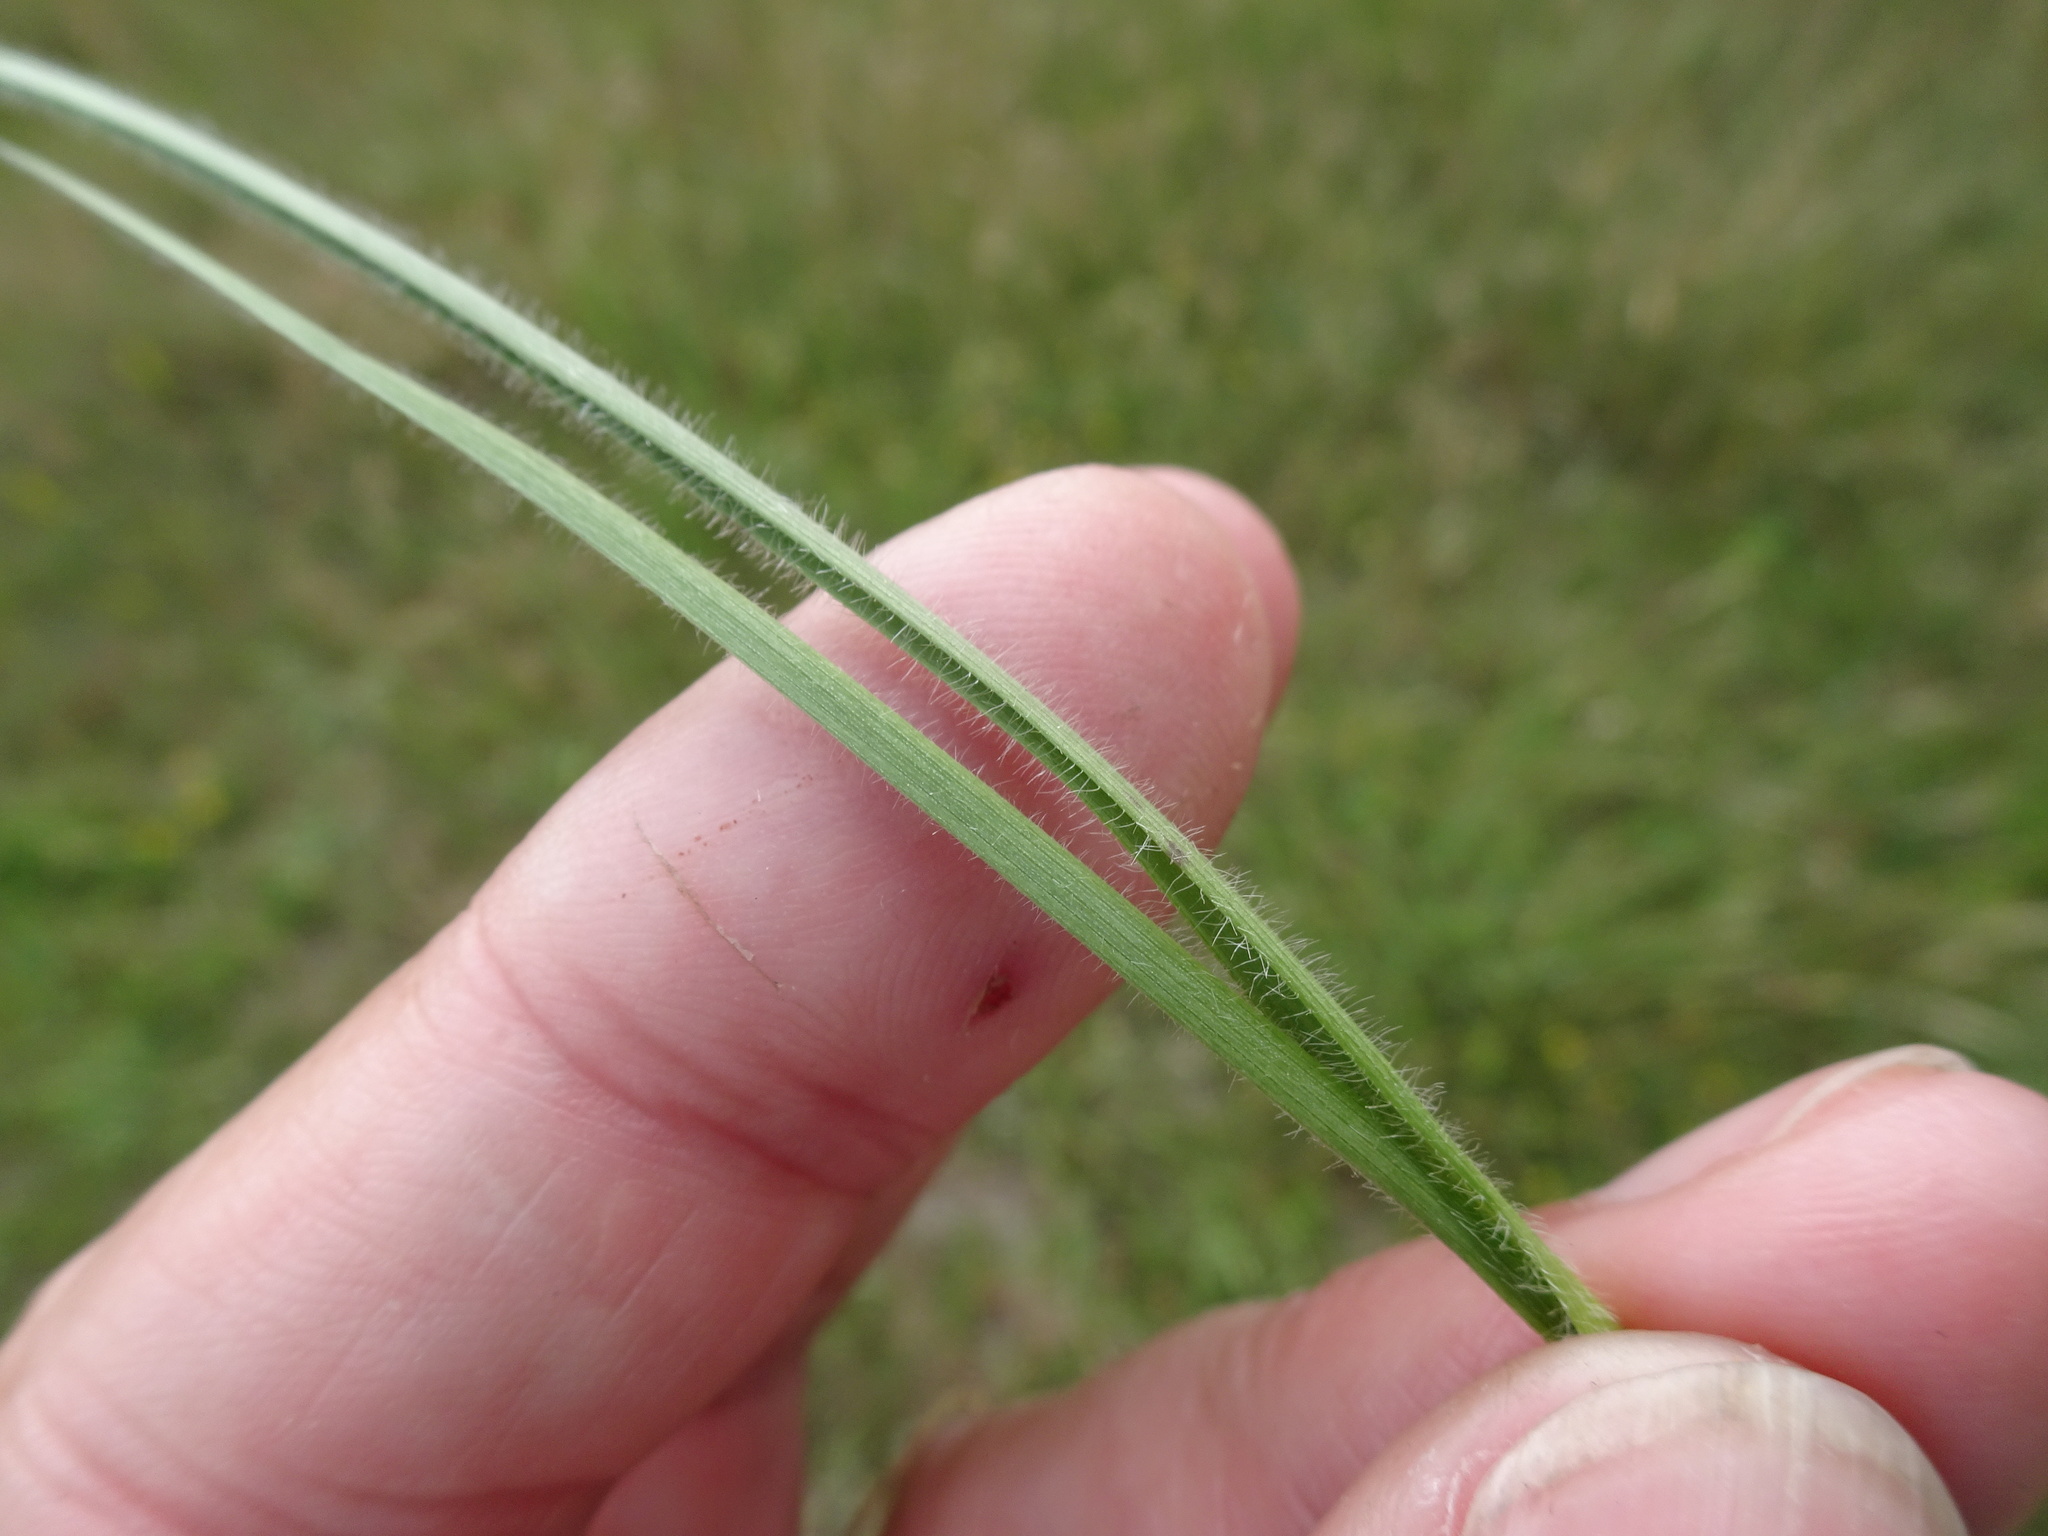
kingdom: Plantae
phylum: Tracheophyta
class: Liliopsida
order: Poales
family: Poaceae
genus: Avenula
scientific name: Avenula pubescens
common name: Downy alpine oatgrass
